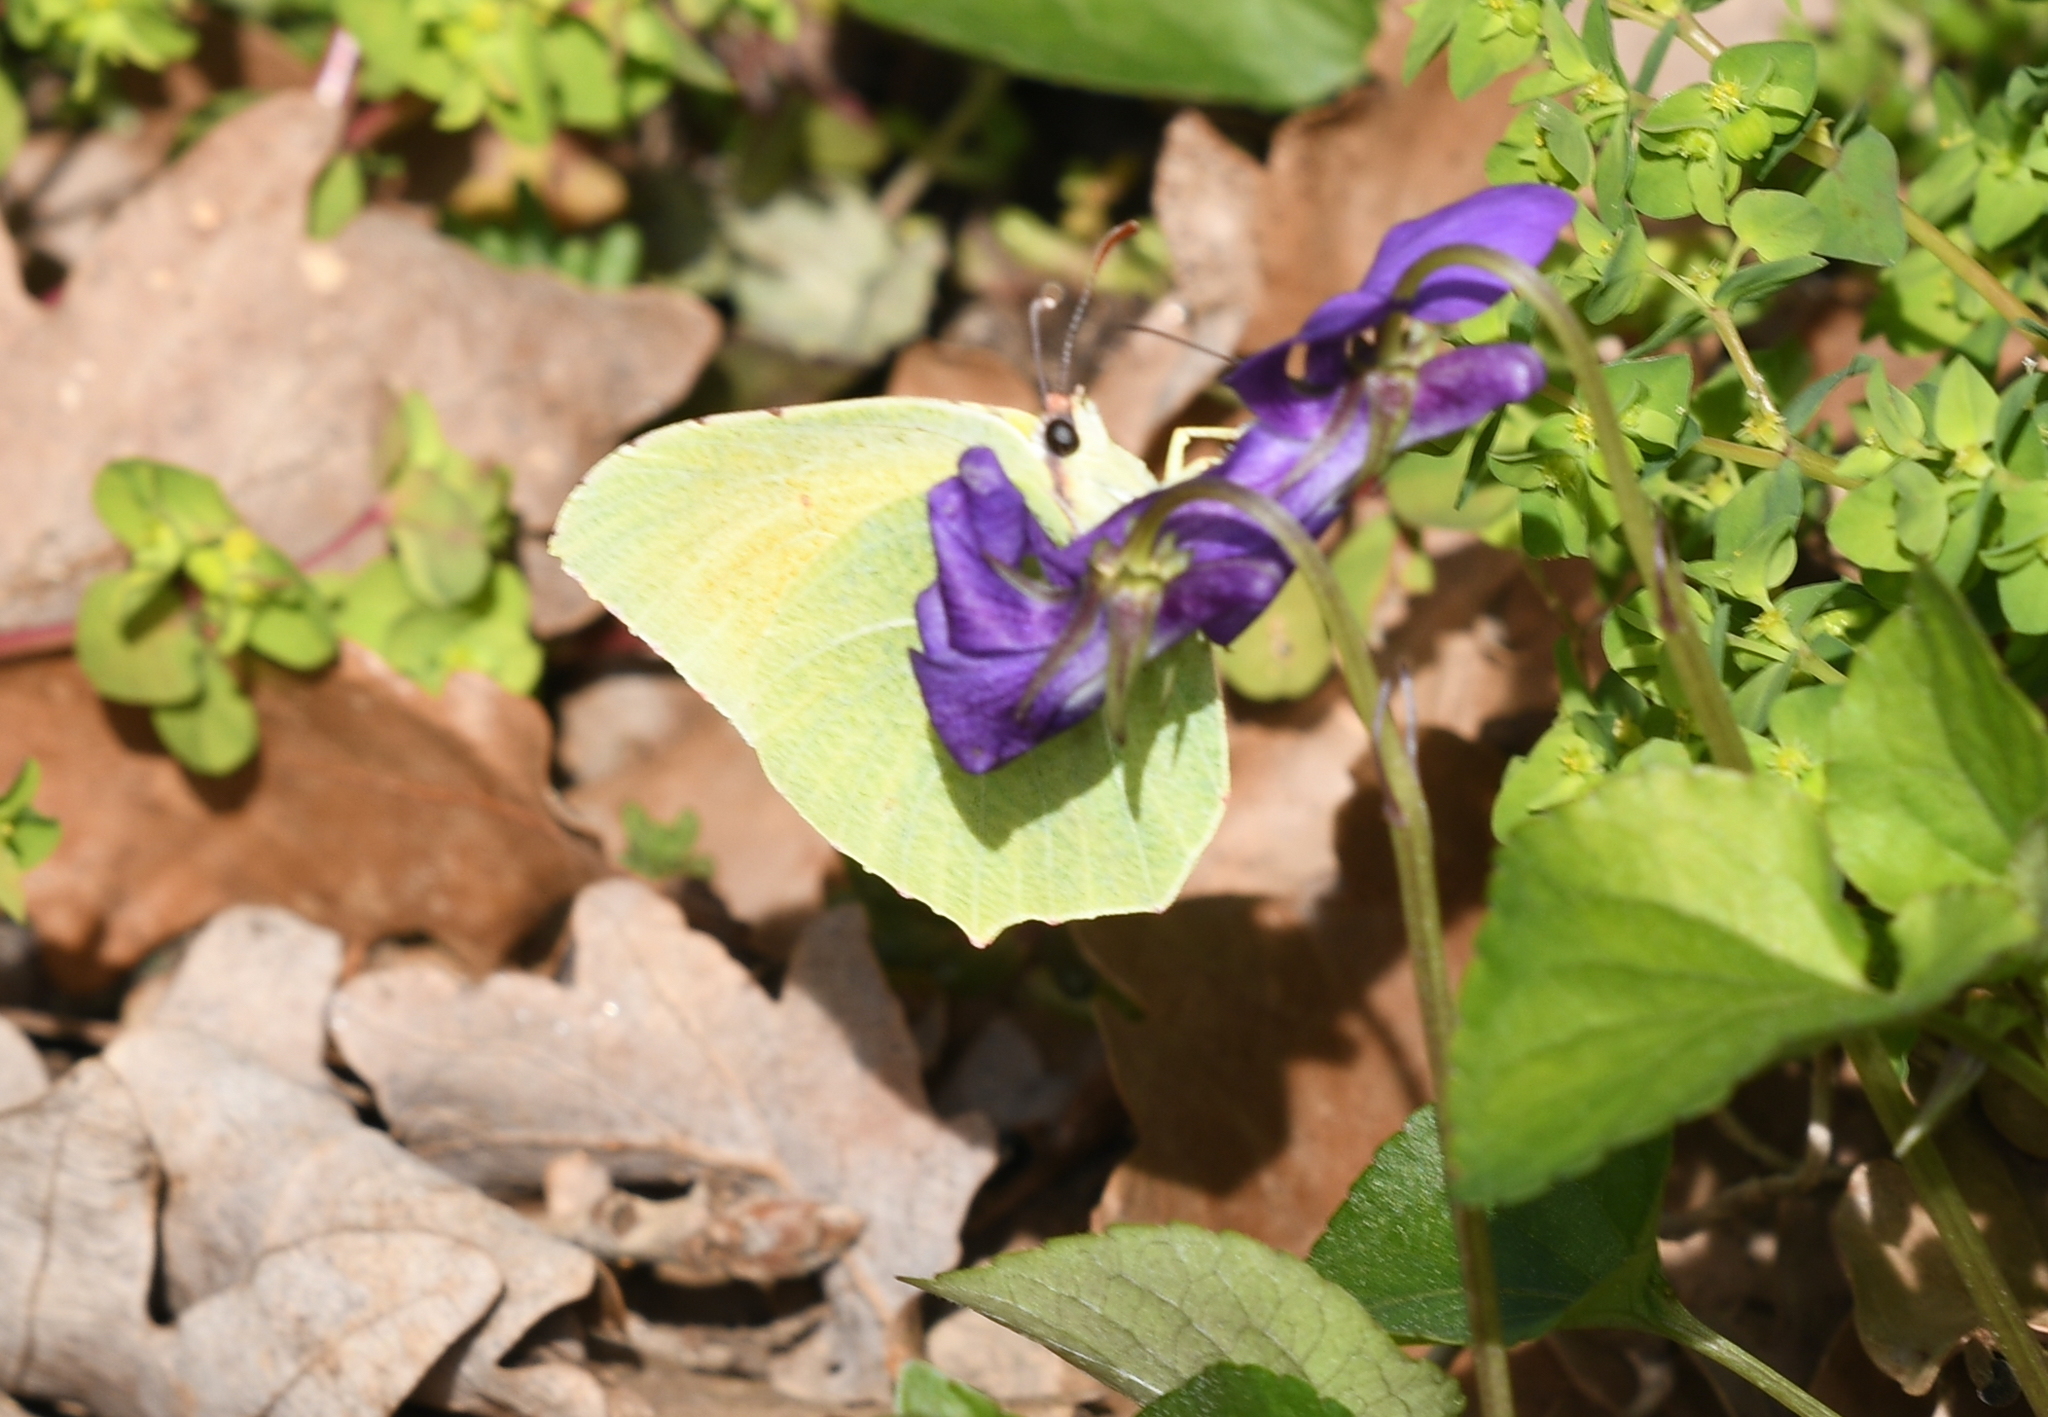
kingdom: Animalia
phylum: Arthropoda
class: Insecta
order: Lepidoptera
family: Pieridae
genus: Gonepteryx
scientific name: Gonepteryx cleopatra
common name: Cleopatra
